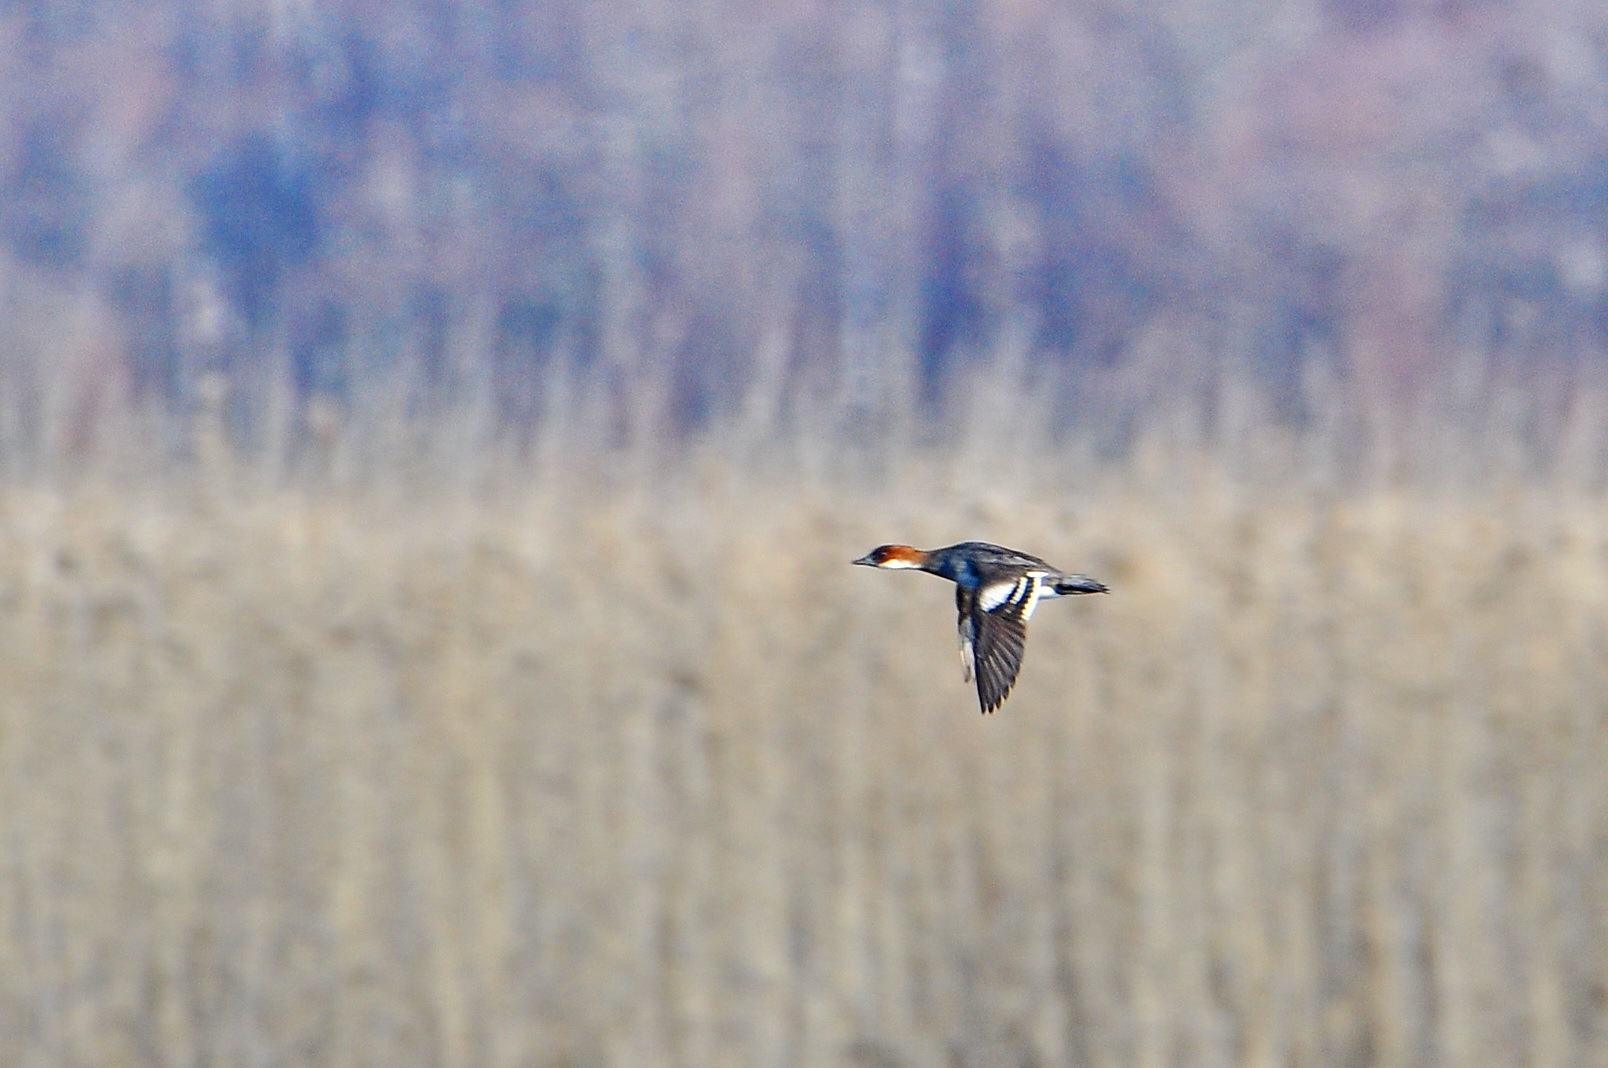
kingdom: Animalia
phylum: Chordata
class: Aves
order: Anseriformes
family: Anatidae
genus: Mergellus
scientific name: Mergellus albellus
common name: Smew
